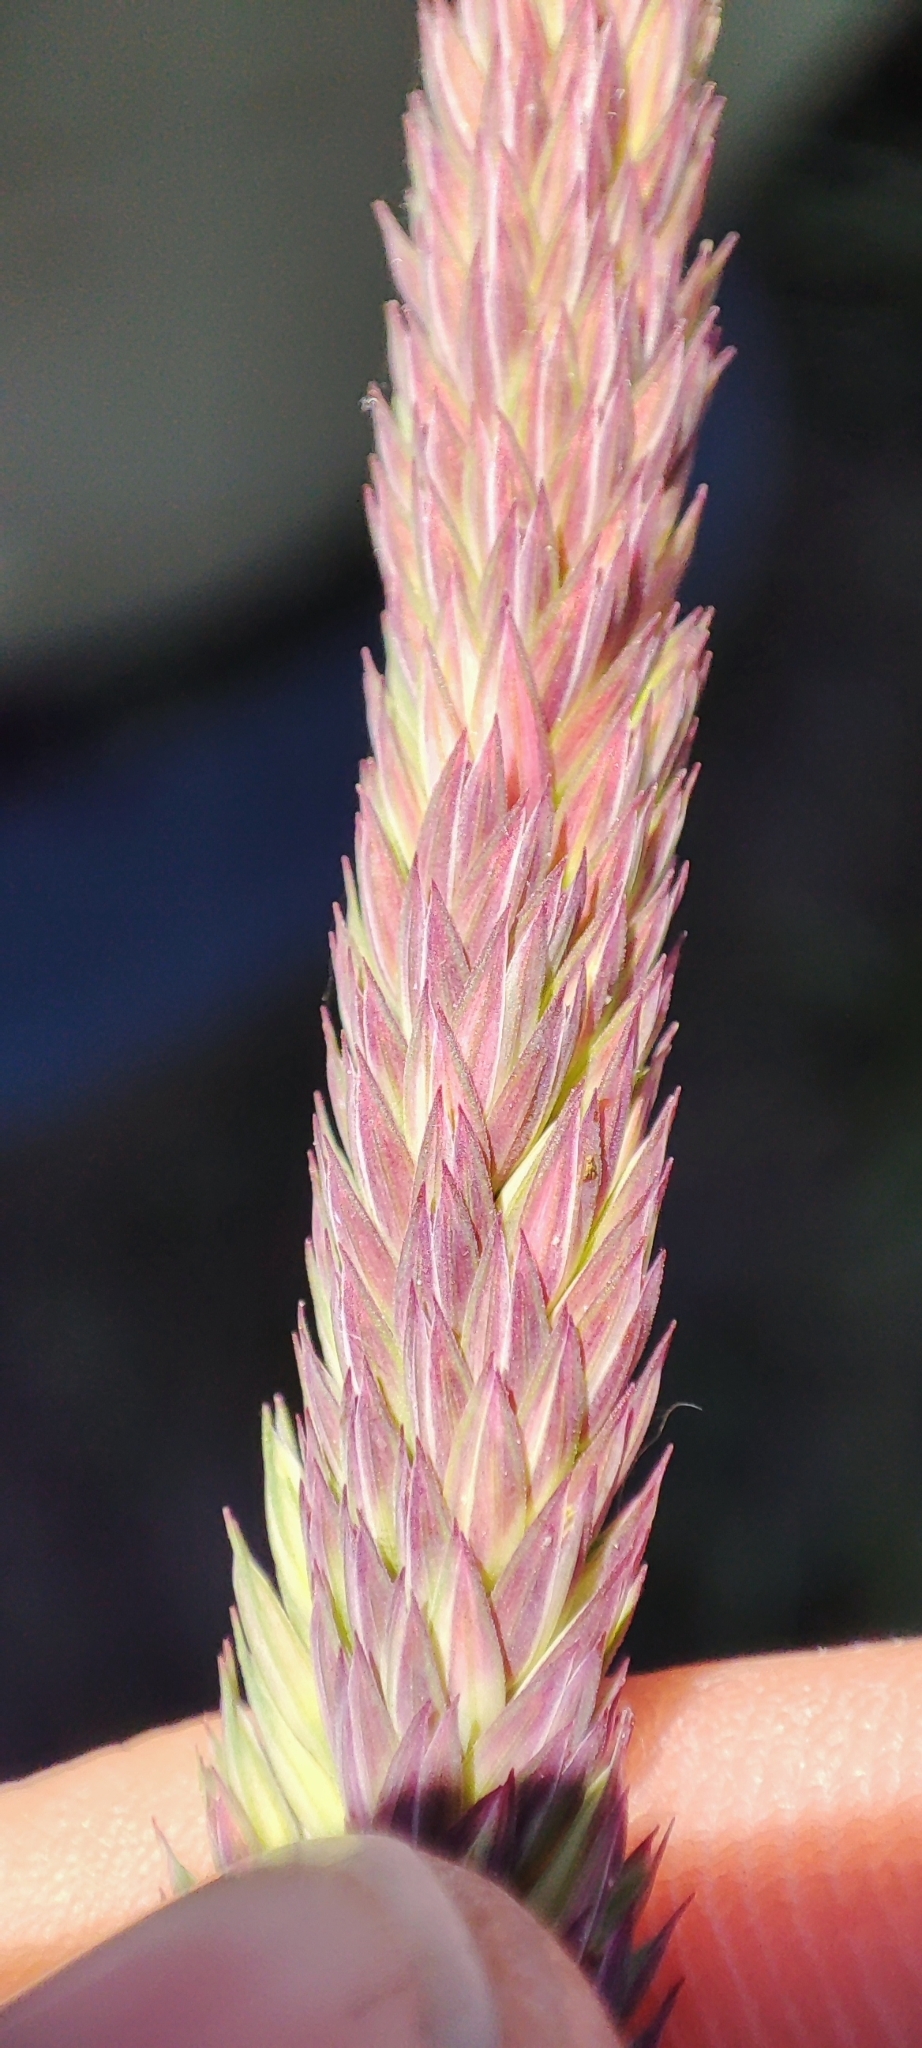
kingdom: Plantae
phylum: Tracheophyta
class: Liliopsida
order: Poales
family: Poaceae
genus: Phalaris
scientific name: Phalaris arundinacea
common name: Reed canary-grass
